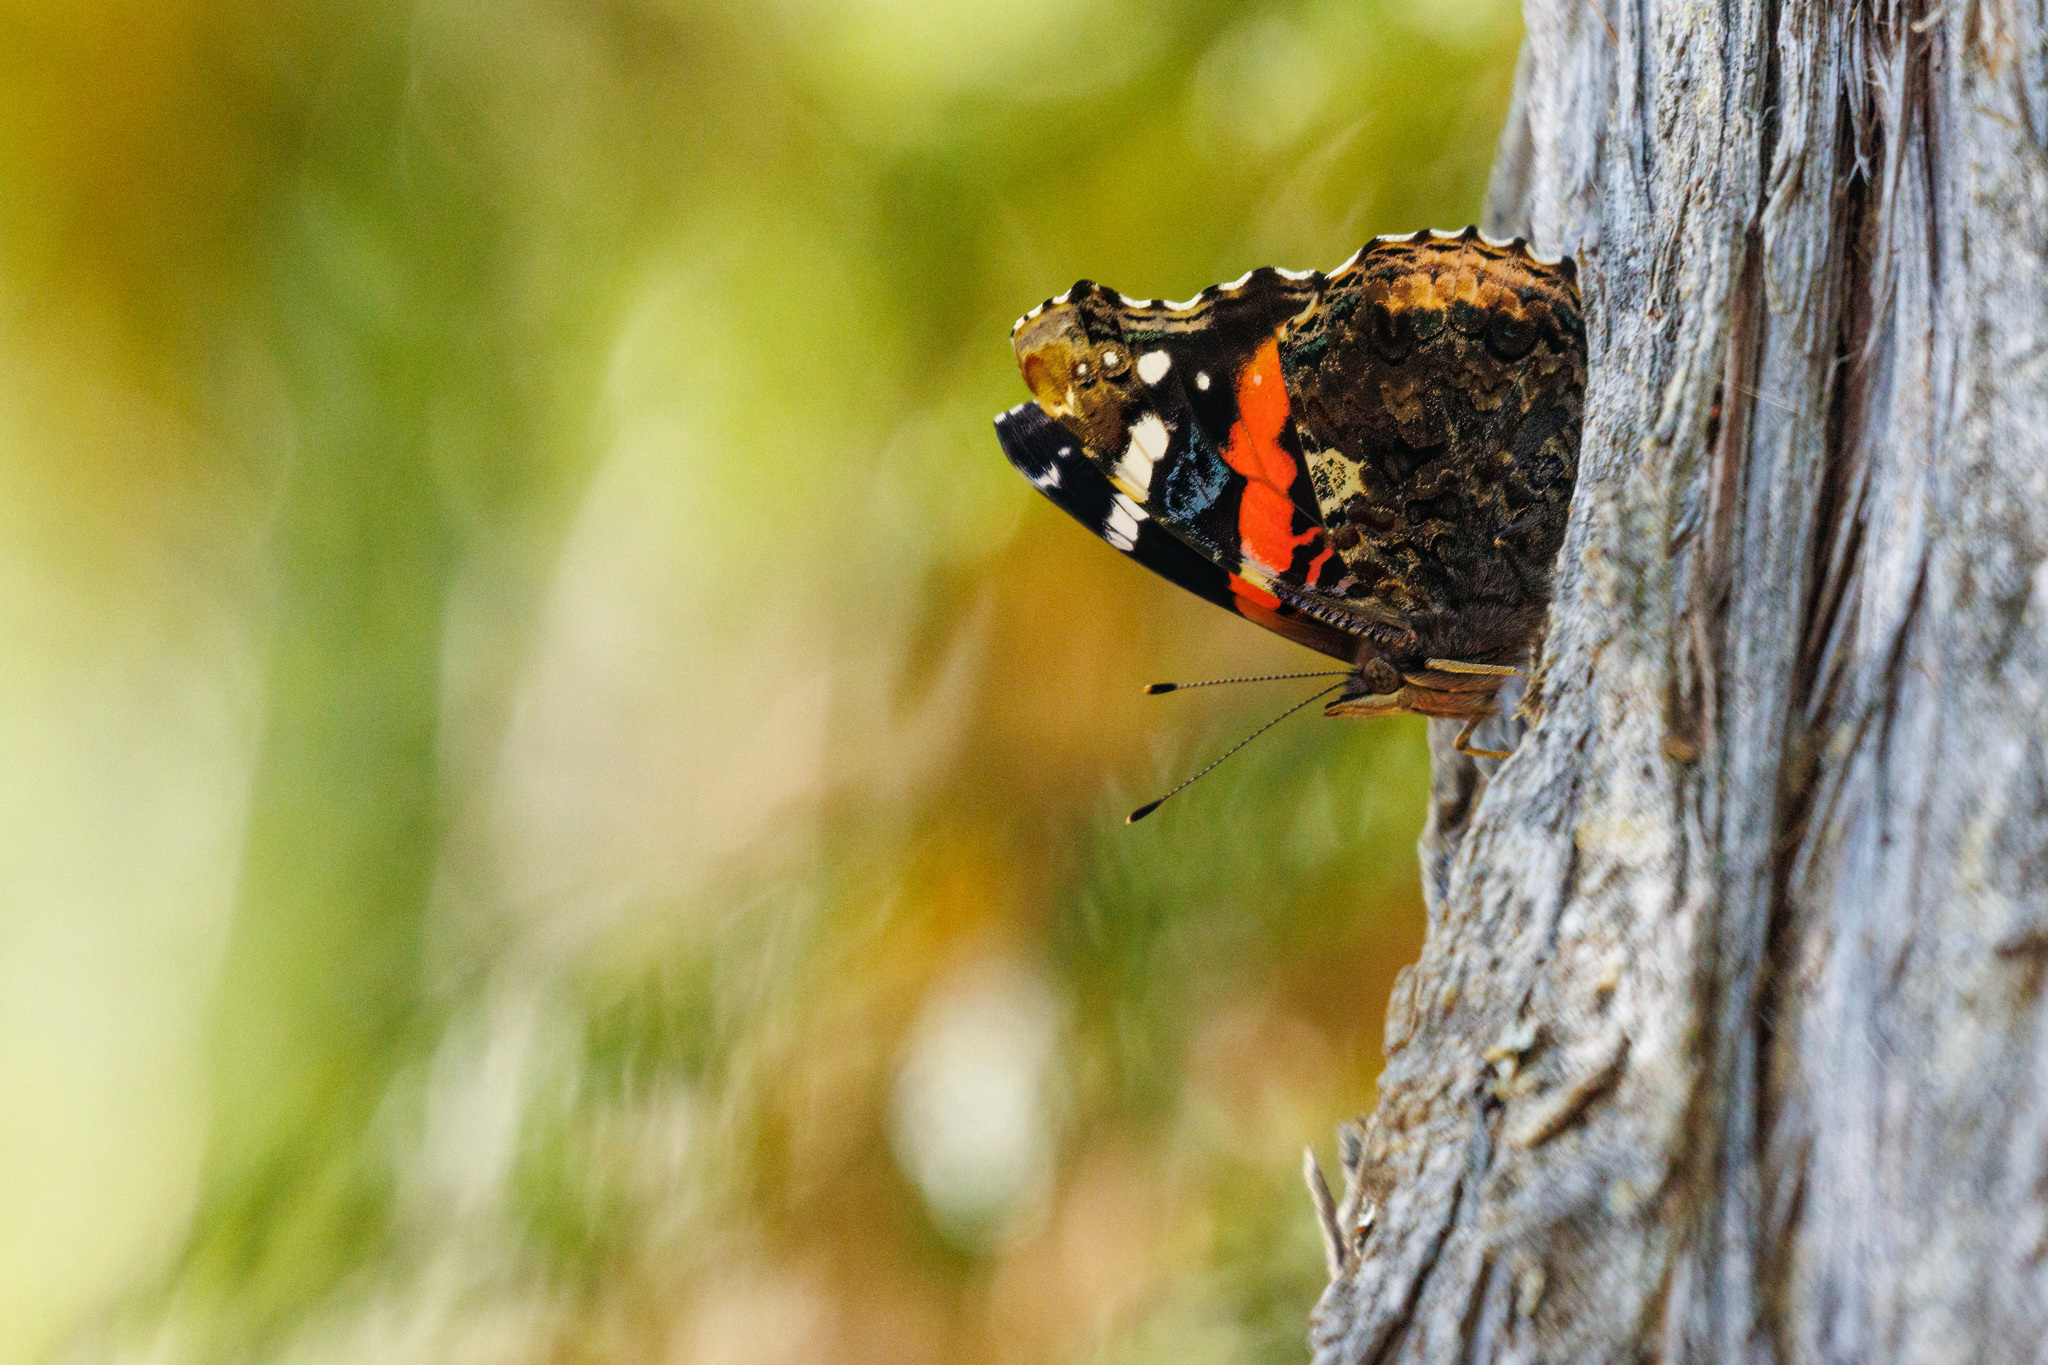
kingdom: Animalia
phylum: Arthropoda
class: Insecta
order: Lepidoptera
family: Nymphalidae
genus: Vanessa
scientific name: Vanessa atalanta
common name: Red admiral
